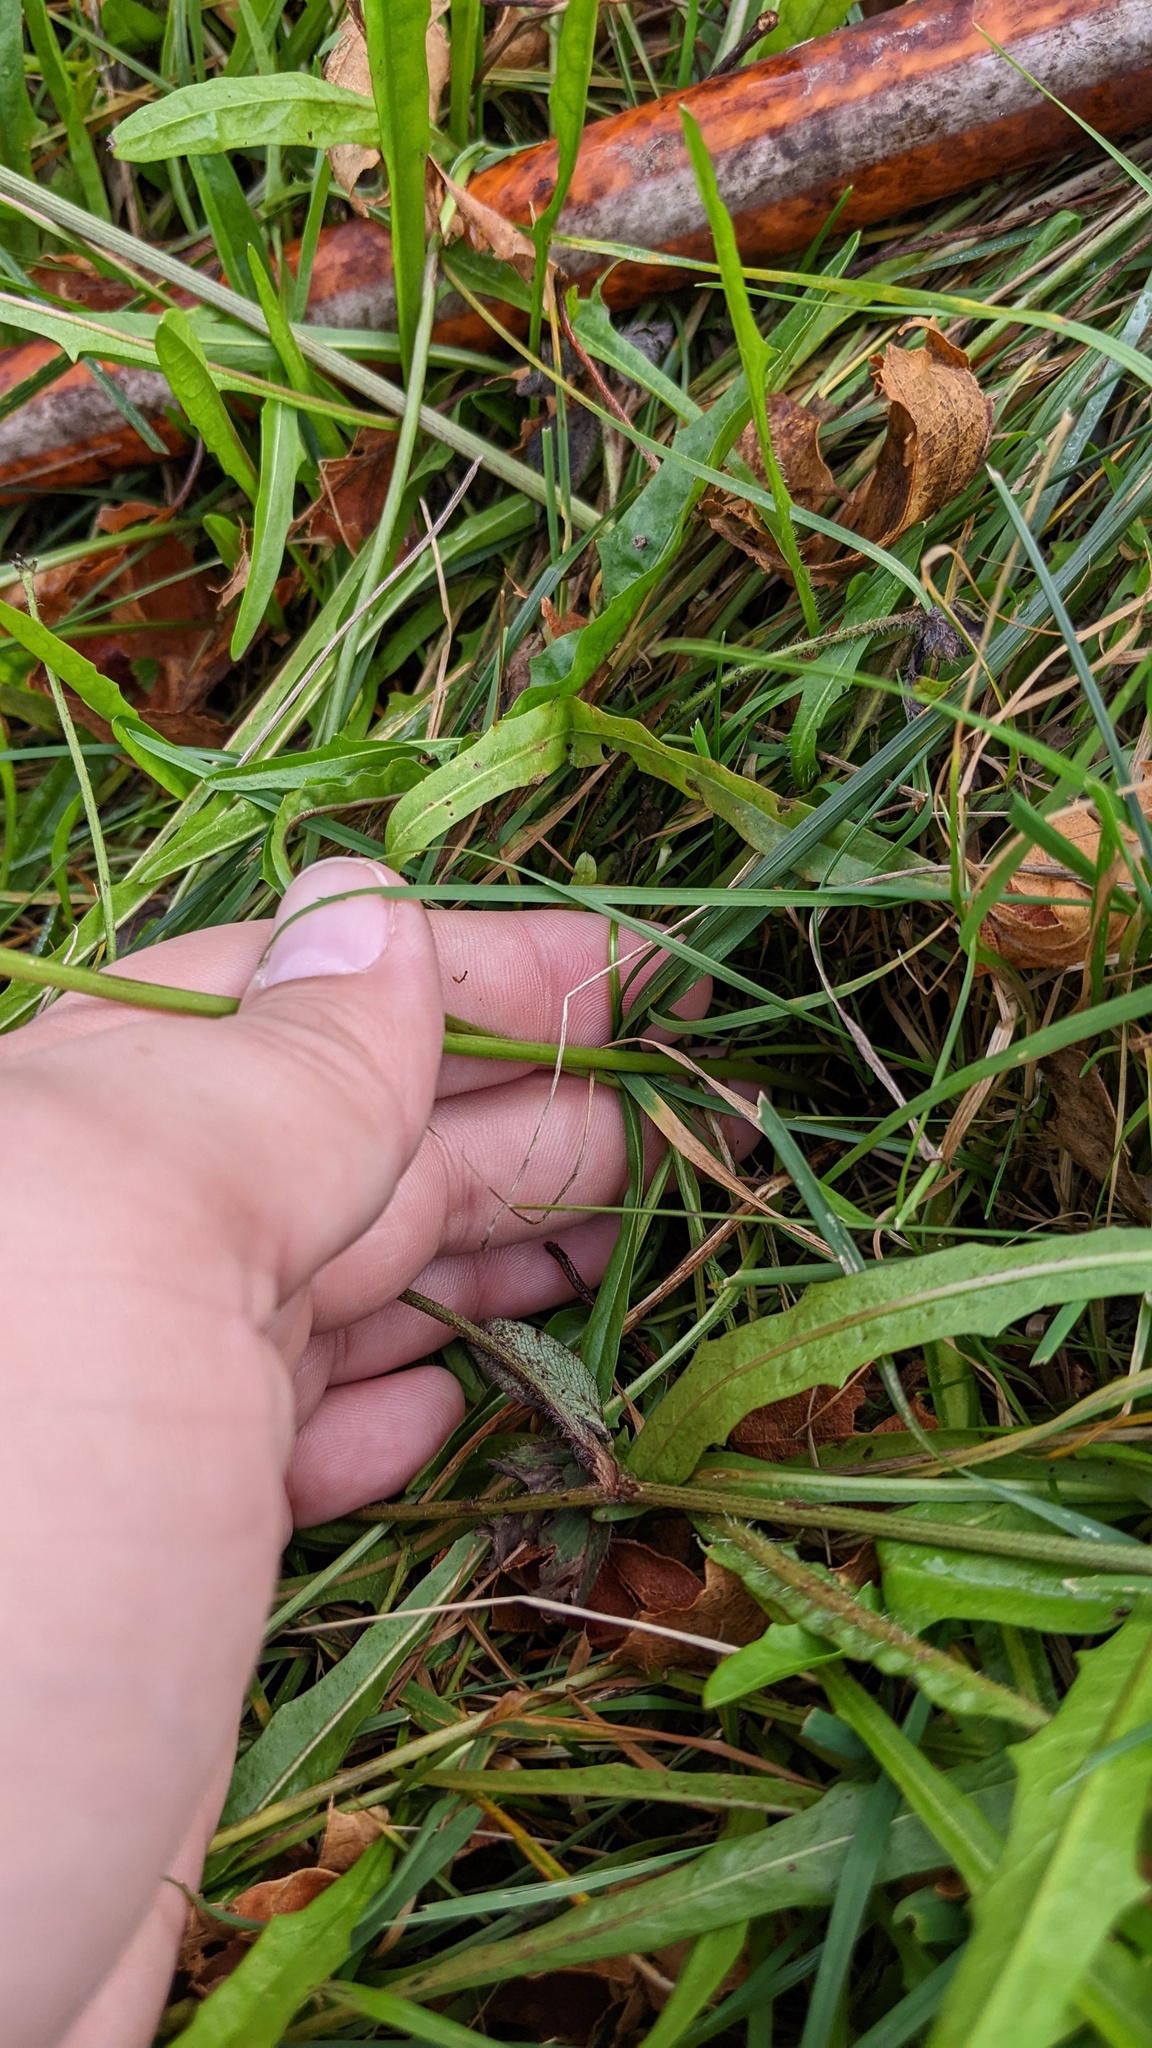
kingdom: Plantae
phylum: Tracheophyta
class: Magnoliopsida
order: Asterales
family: Asteraceae
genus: Scorzoneroides
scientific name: Scorzoneroides autumnalis
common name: Autumn hawkbit
